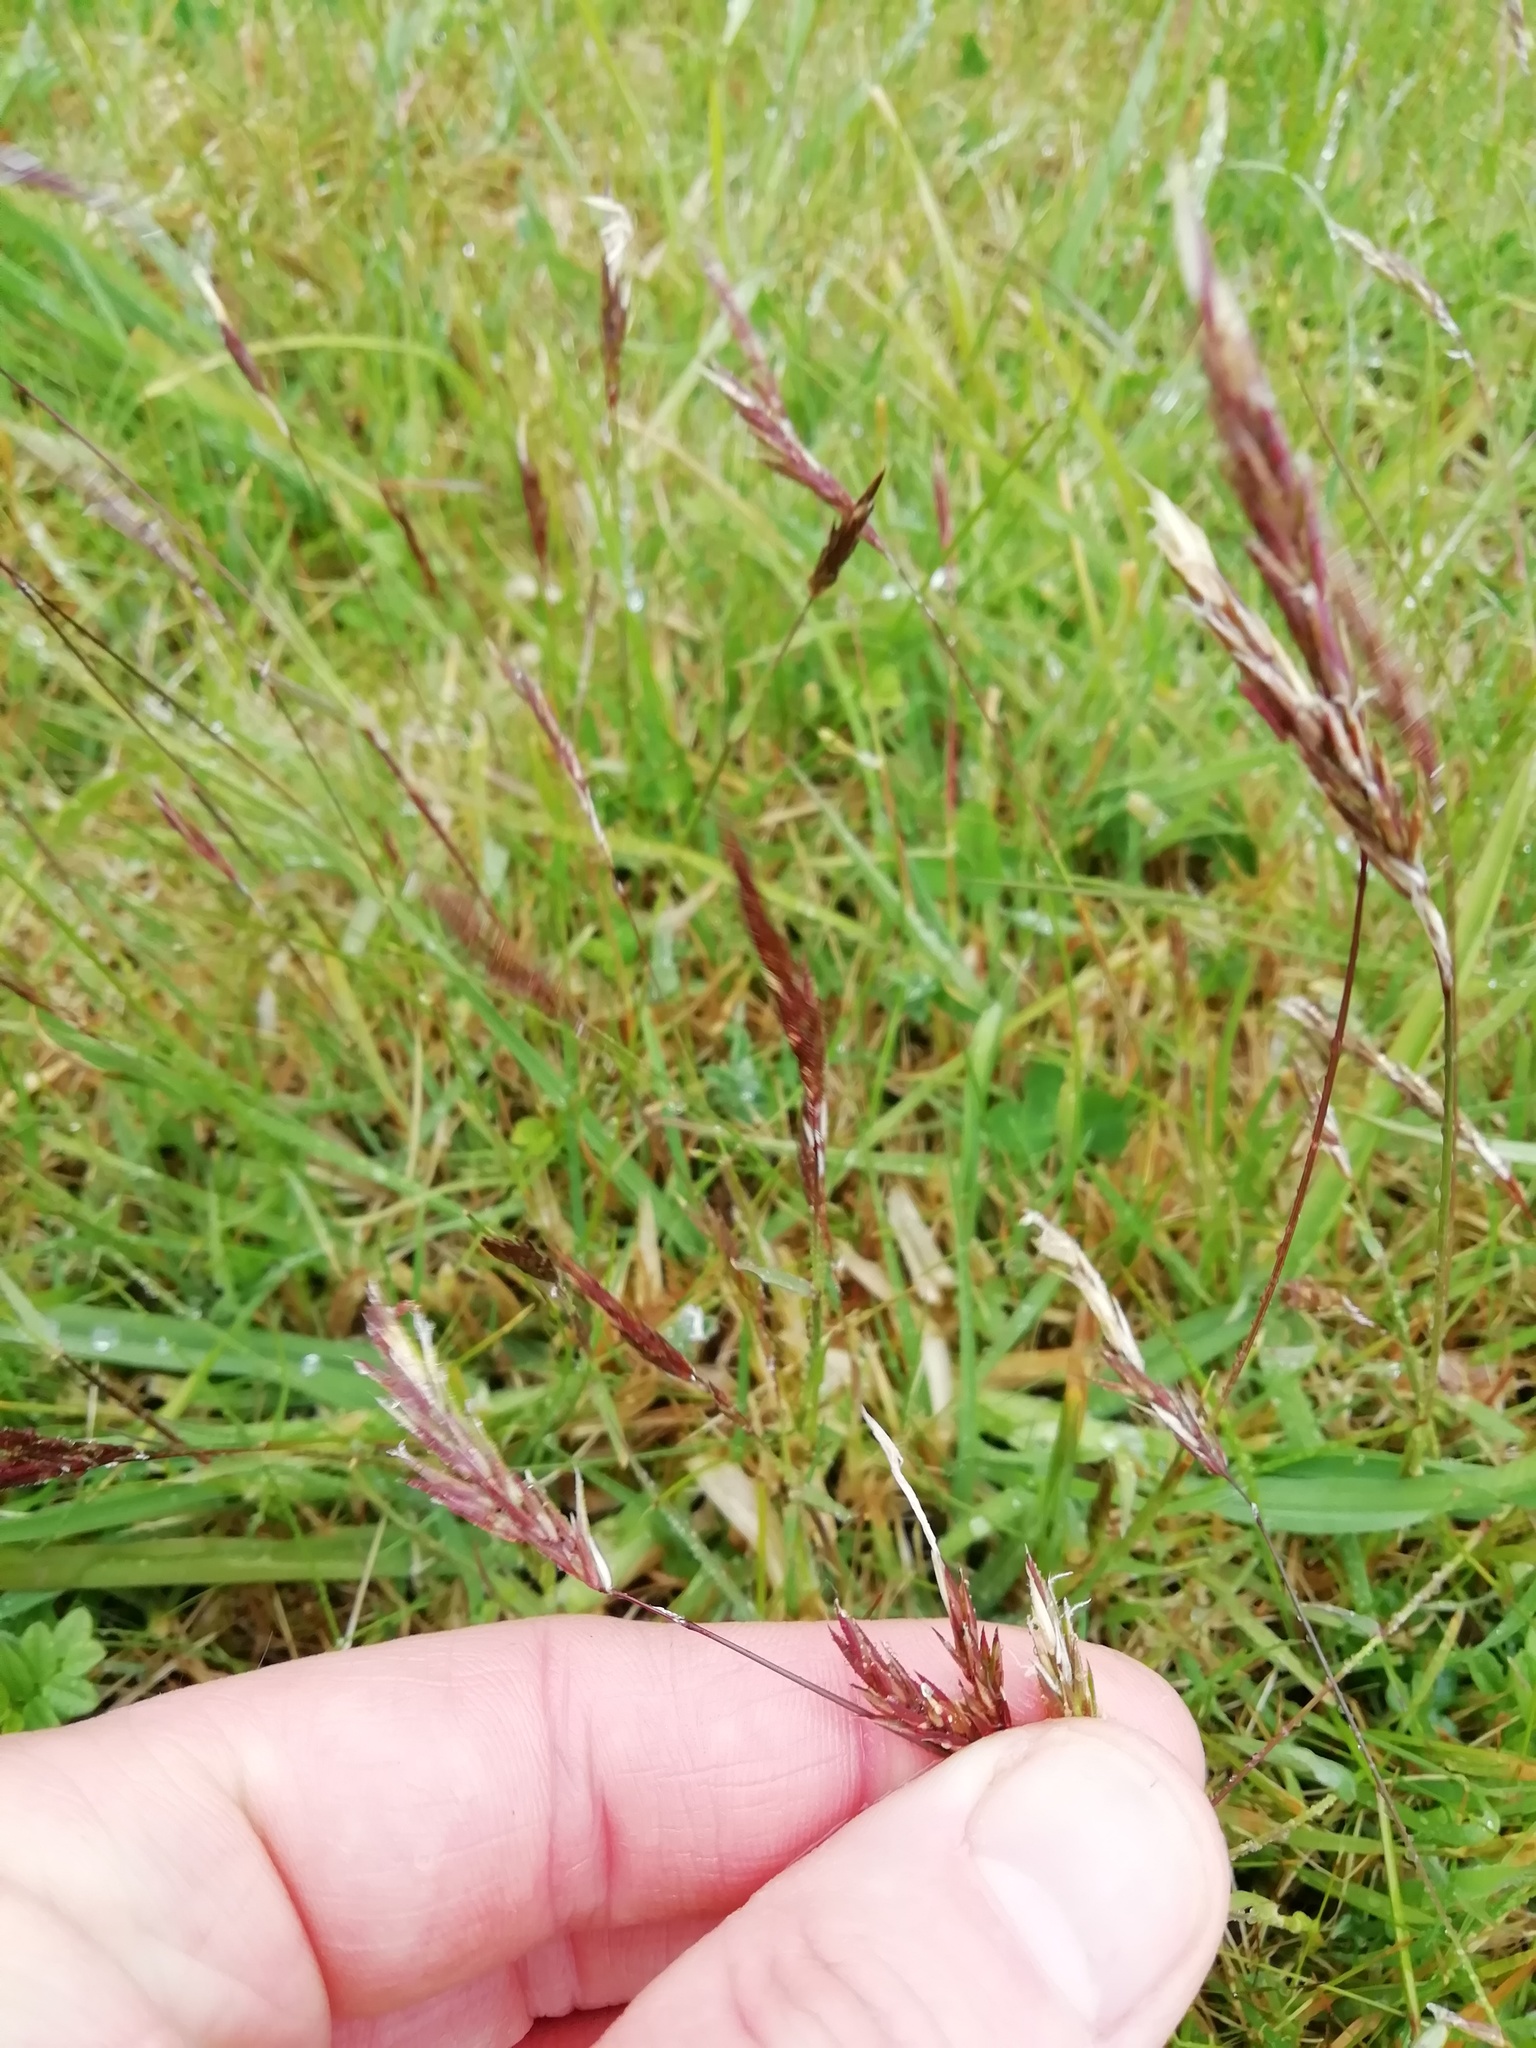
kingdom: Plantae
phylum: Tracheophyta
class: Liliopsida
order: Poales
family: Poaceae
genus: Anthoxanthum
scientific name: Anthoxanthum odoratum
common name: Sweet vernalgrass
